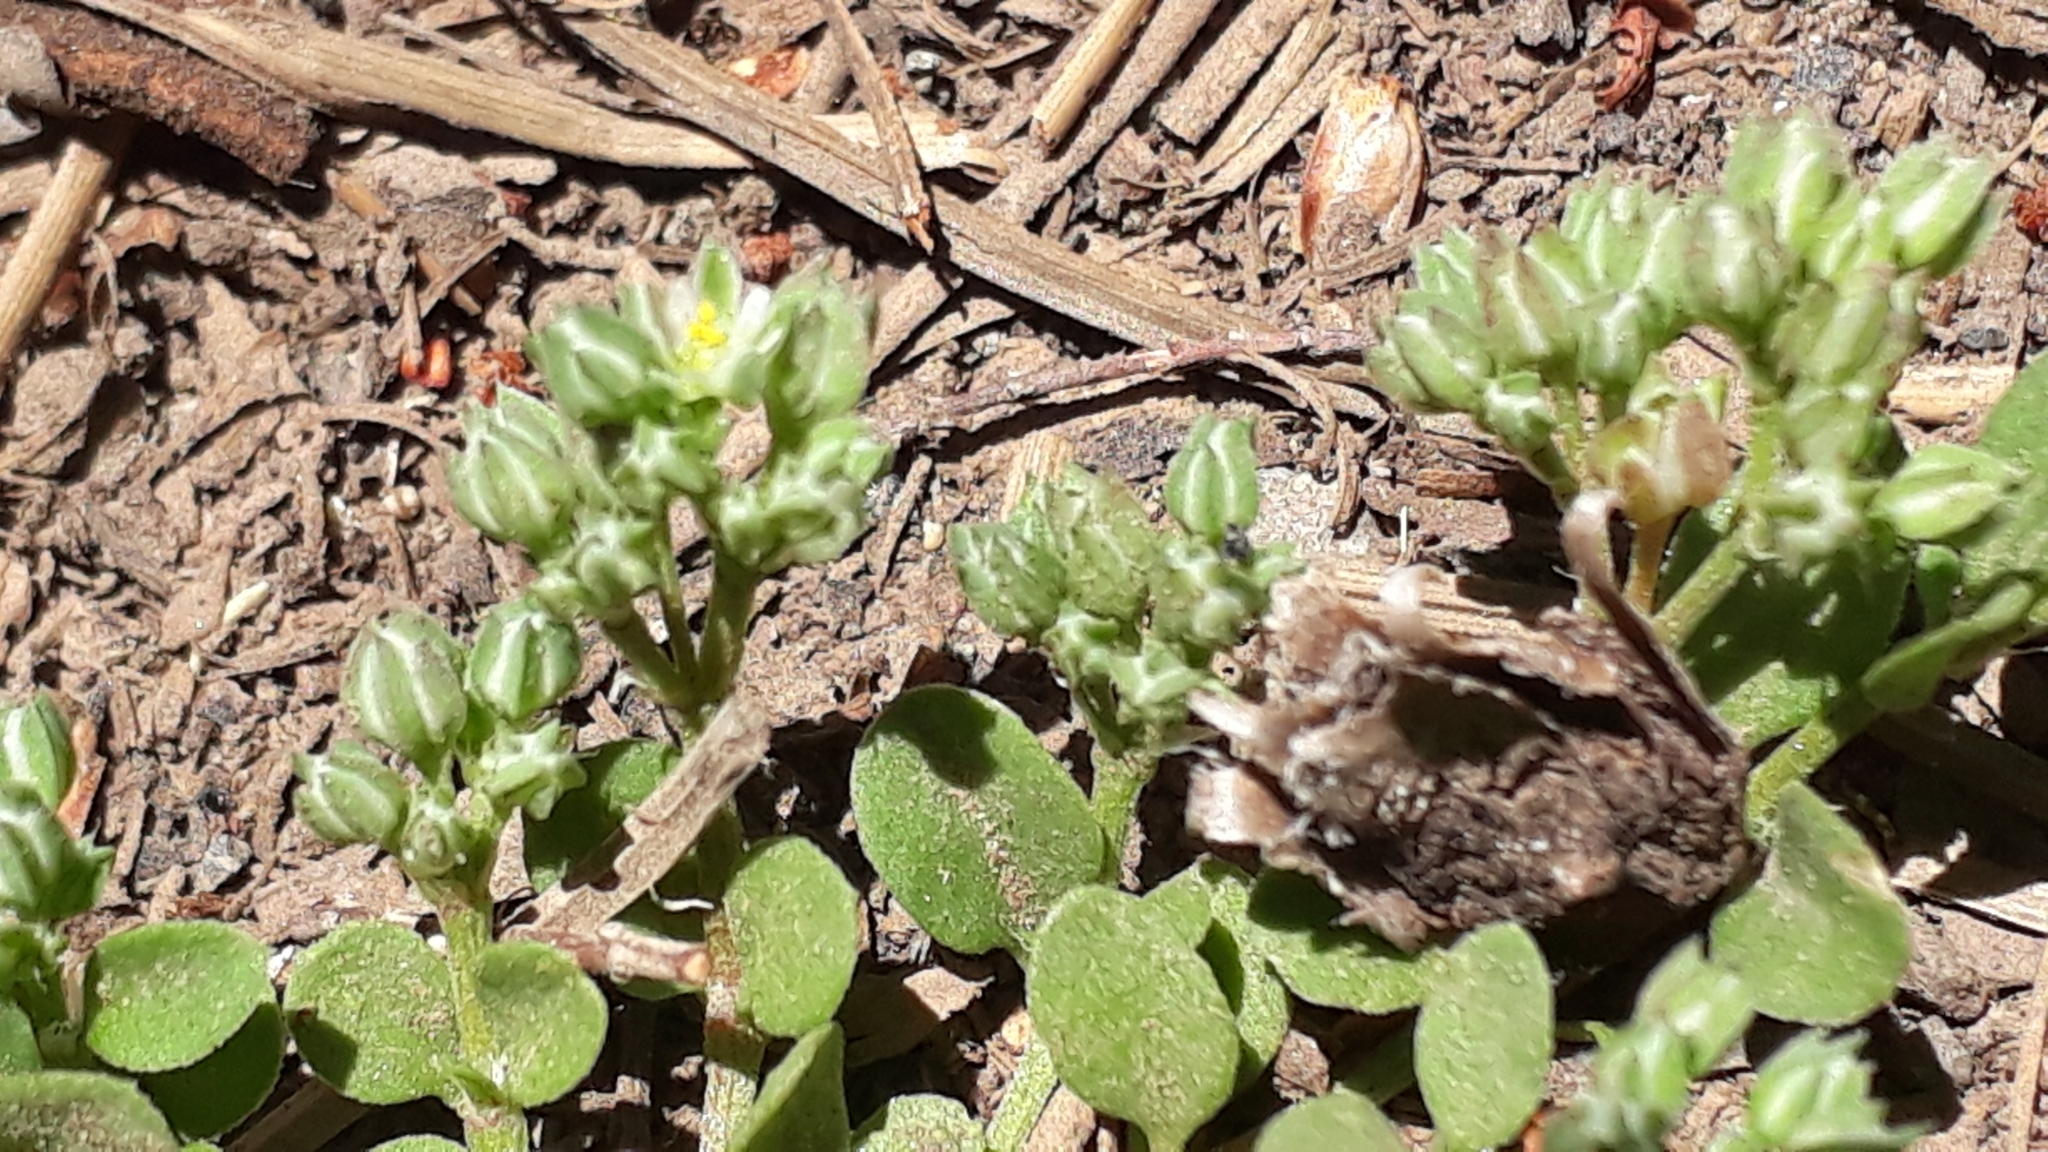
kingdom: Plantae
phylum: Tracheophyta
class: Magnoliopsida
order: Caryophyllales
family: Caryophyllaceae
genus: Polycarpaea
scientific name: Polycarpaea divaricata
